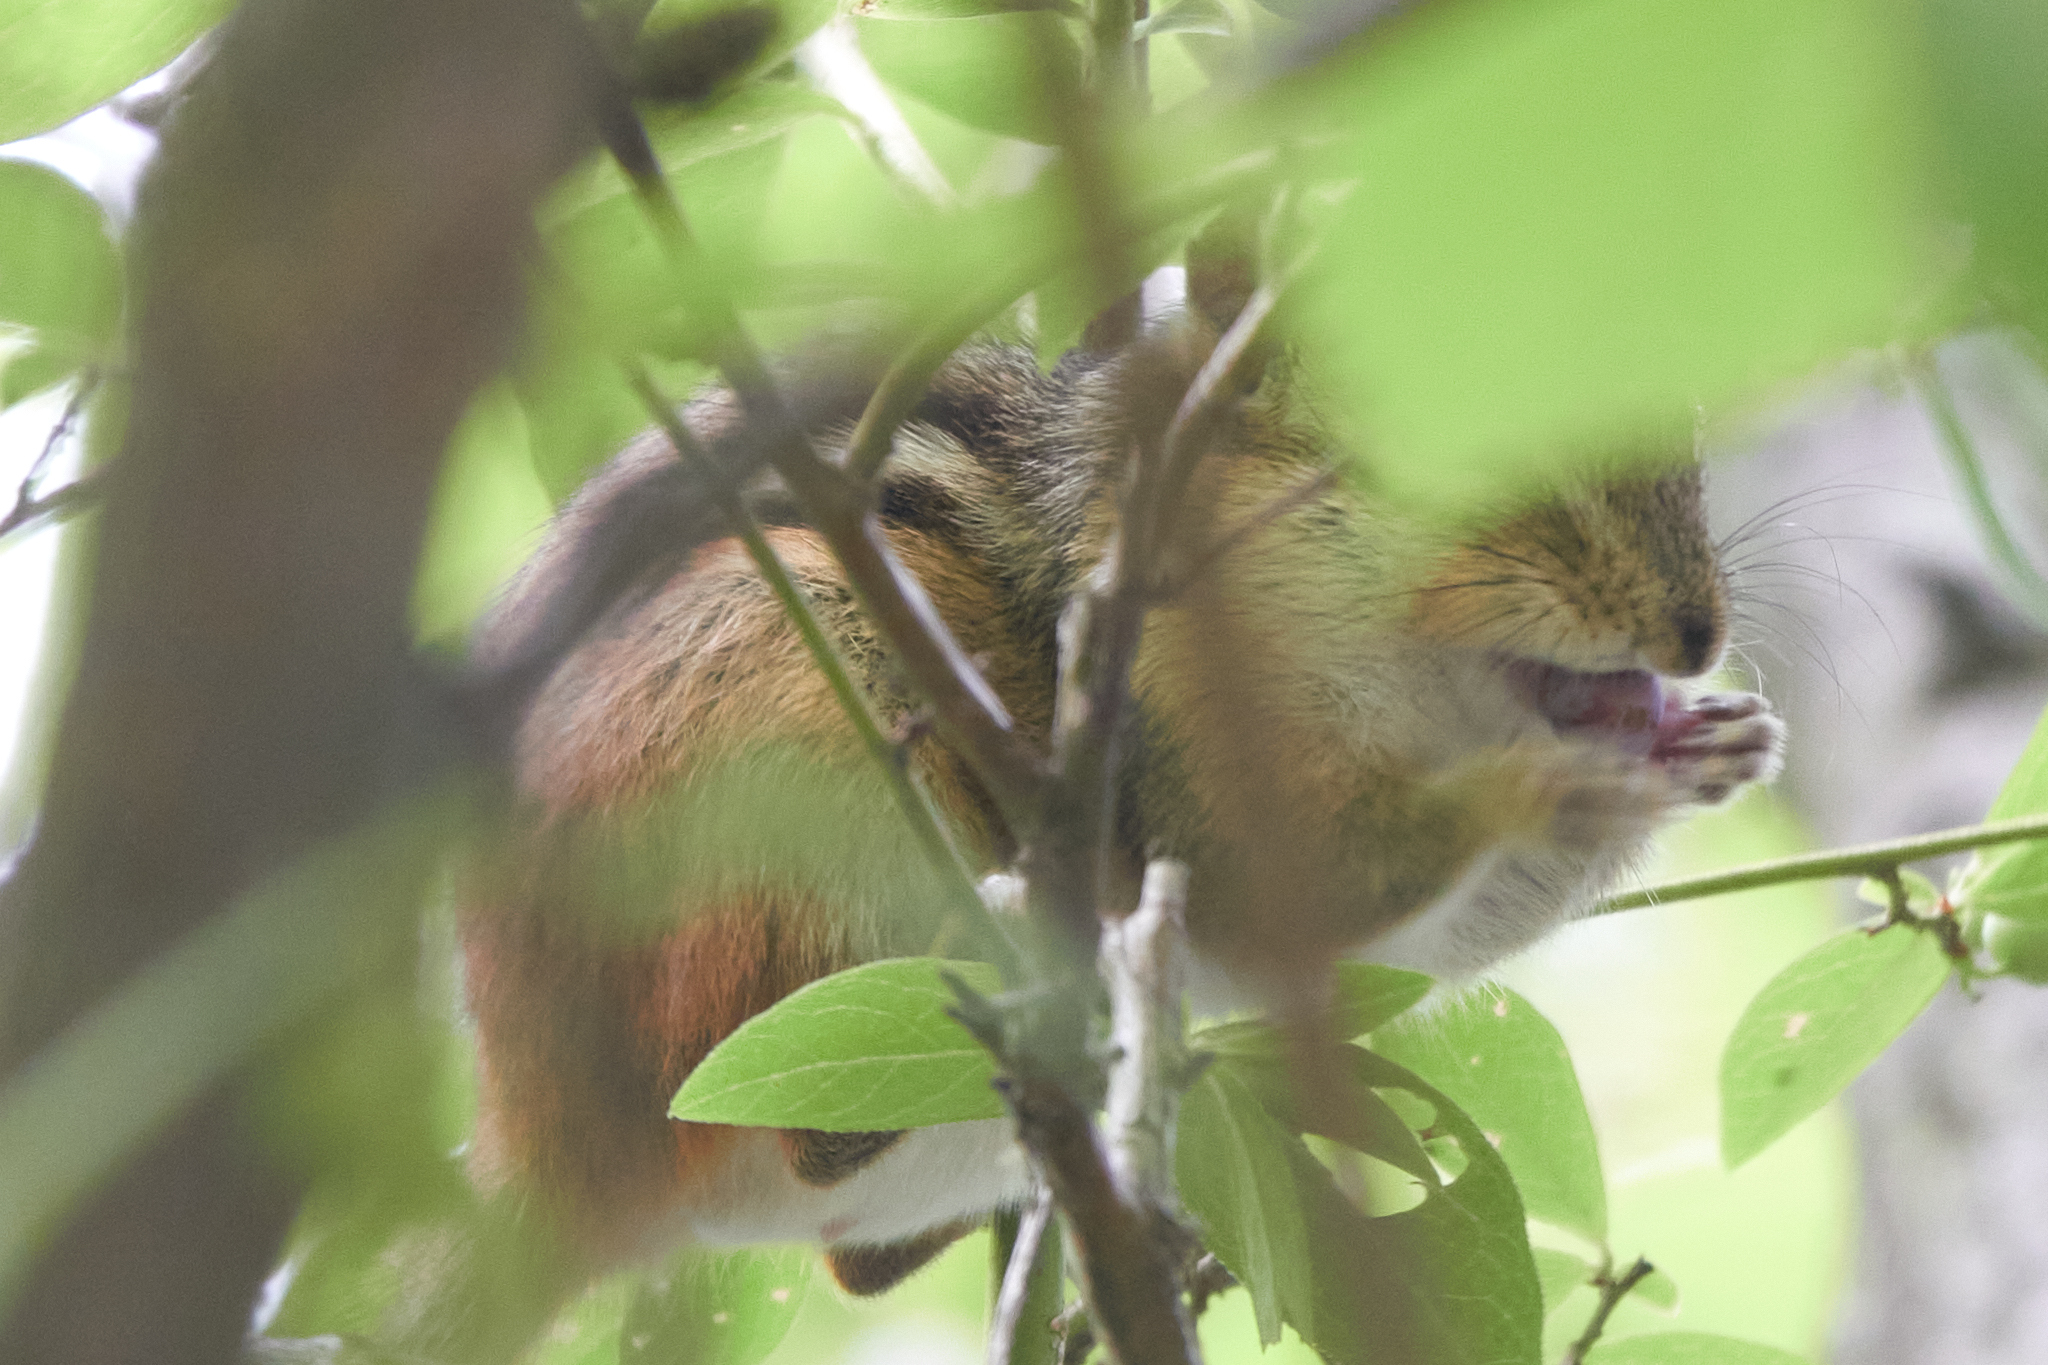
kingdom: Animalia
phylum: Chordata
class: Mammalia
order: Rodentia
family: Sciuridae
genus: Tamias
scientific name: Tamias striatus
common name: Eastern chipmunk
